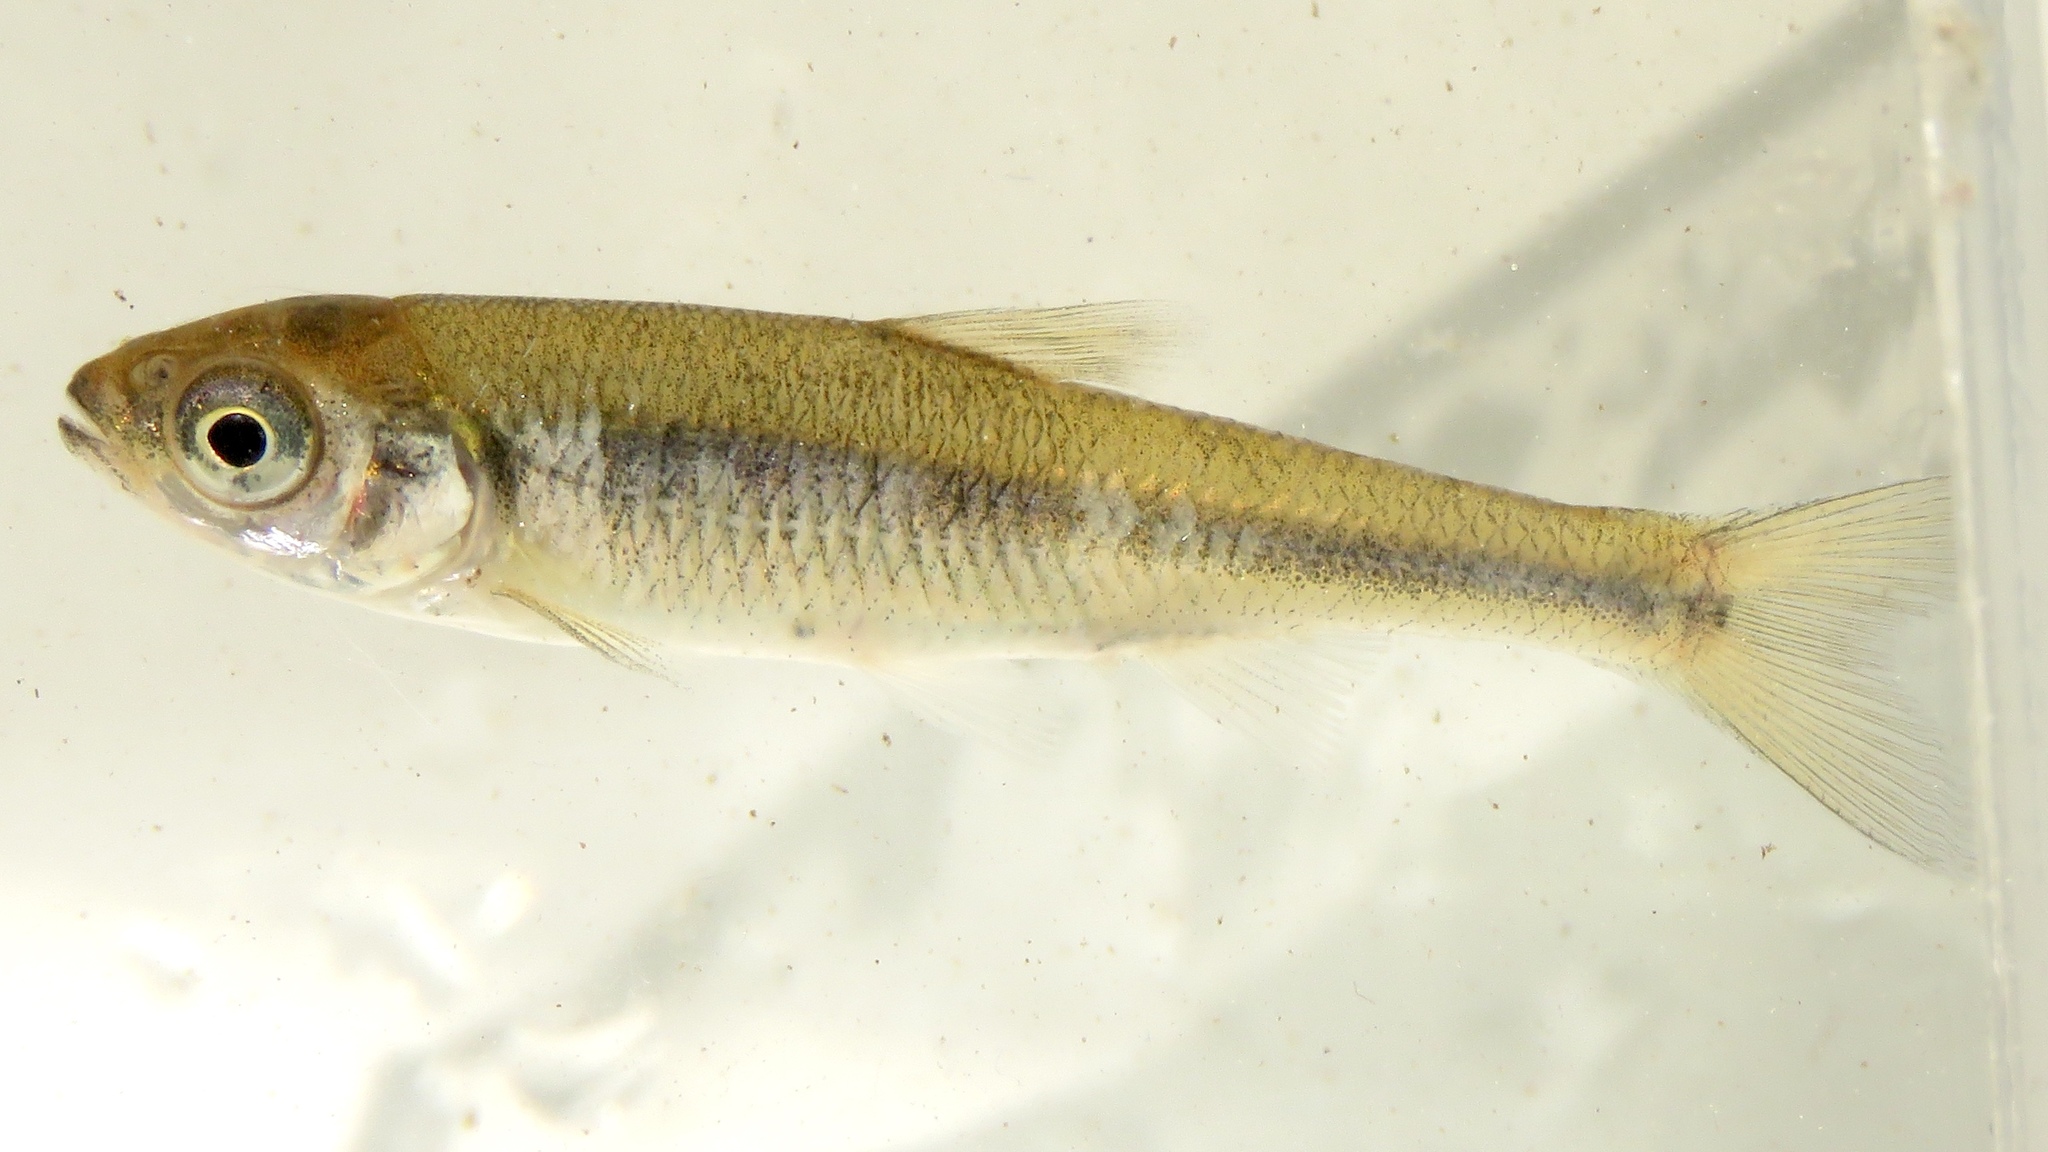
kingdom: Animalia
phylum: Chordata
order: Cypriniformes
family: Cyprinidae
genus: Luxilus
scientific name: Luxilus cornutus
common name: Common shiner
